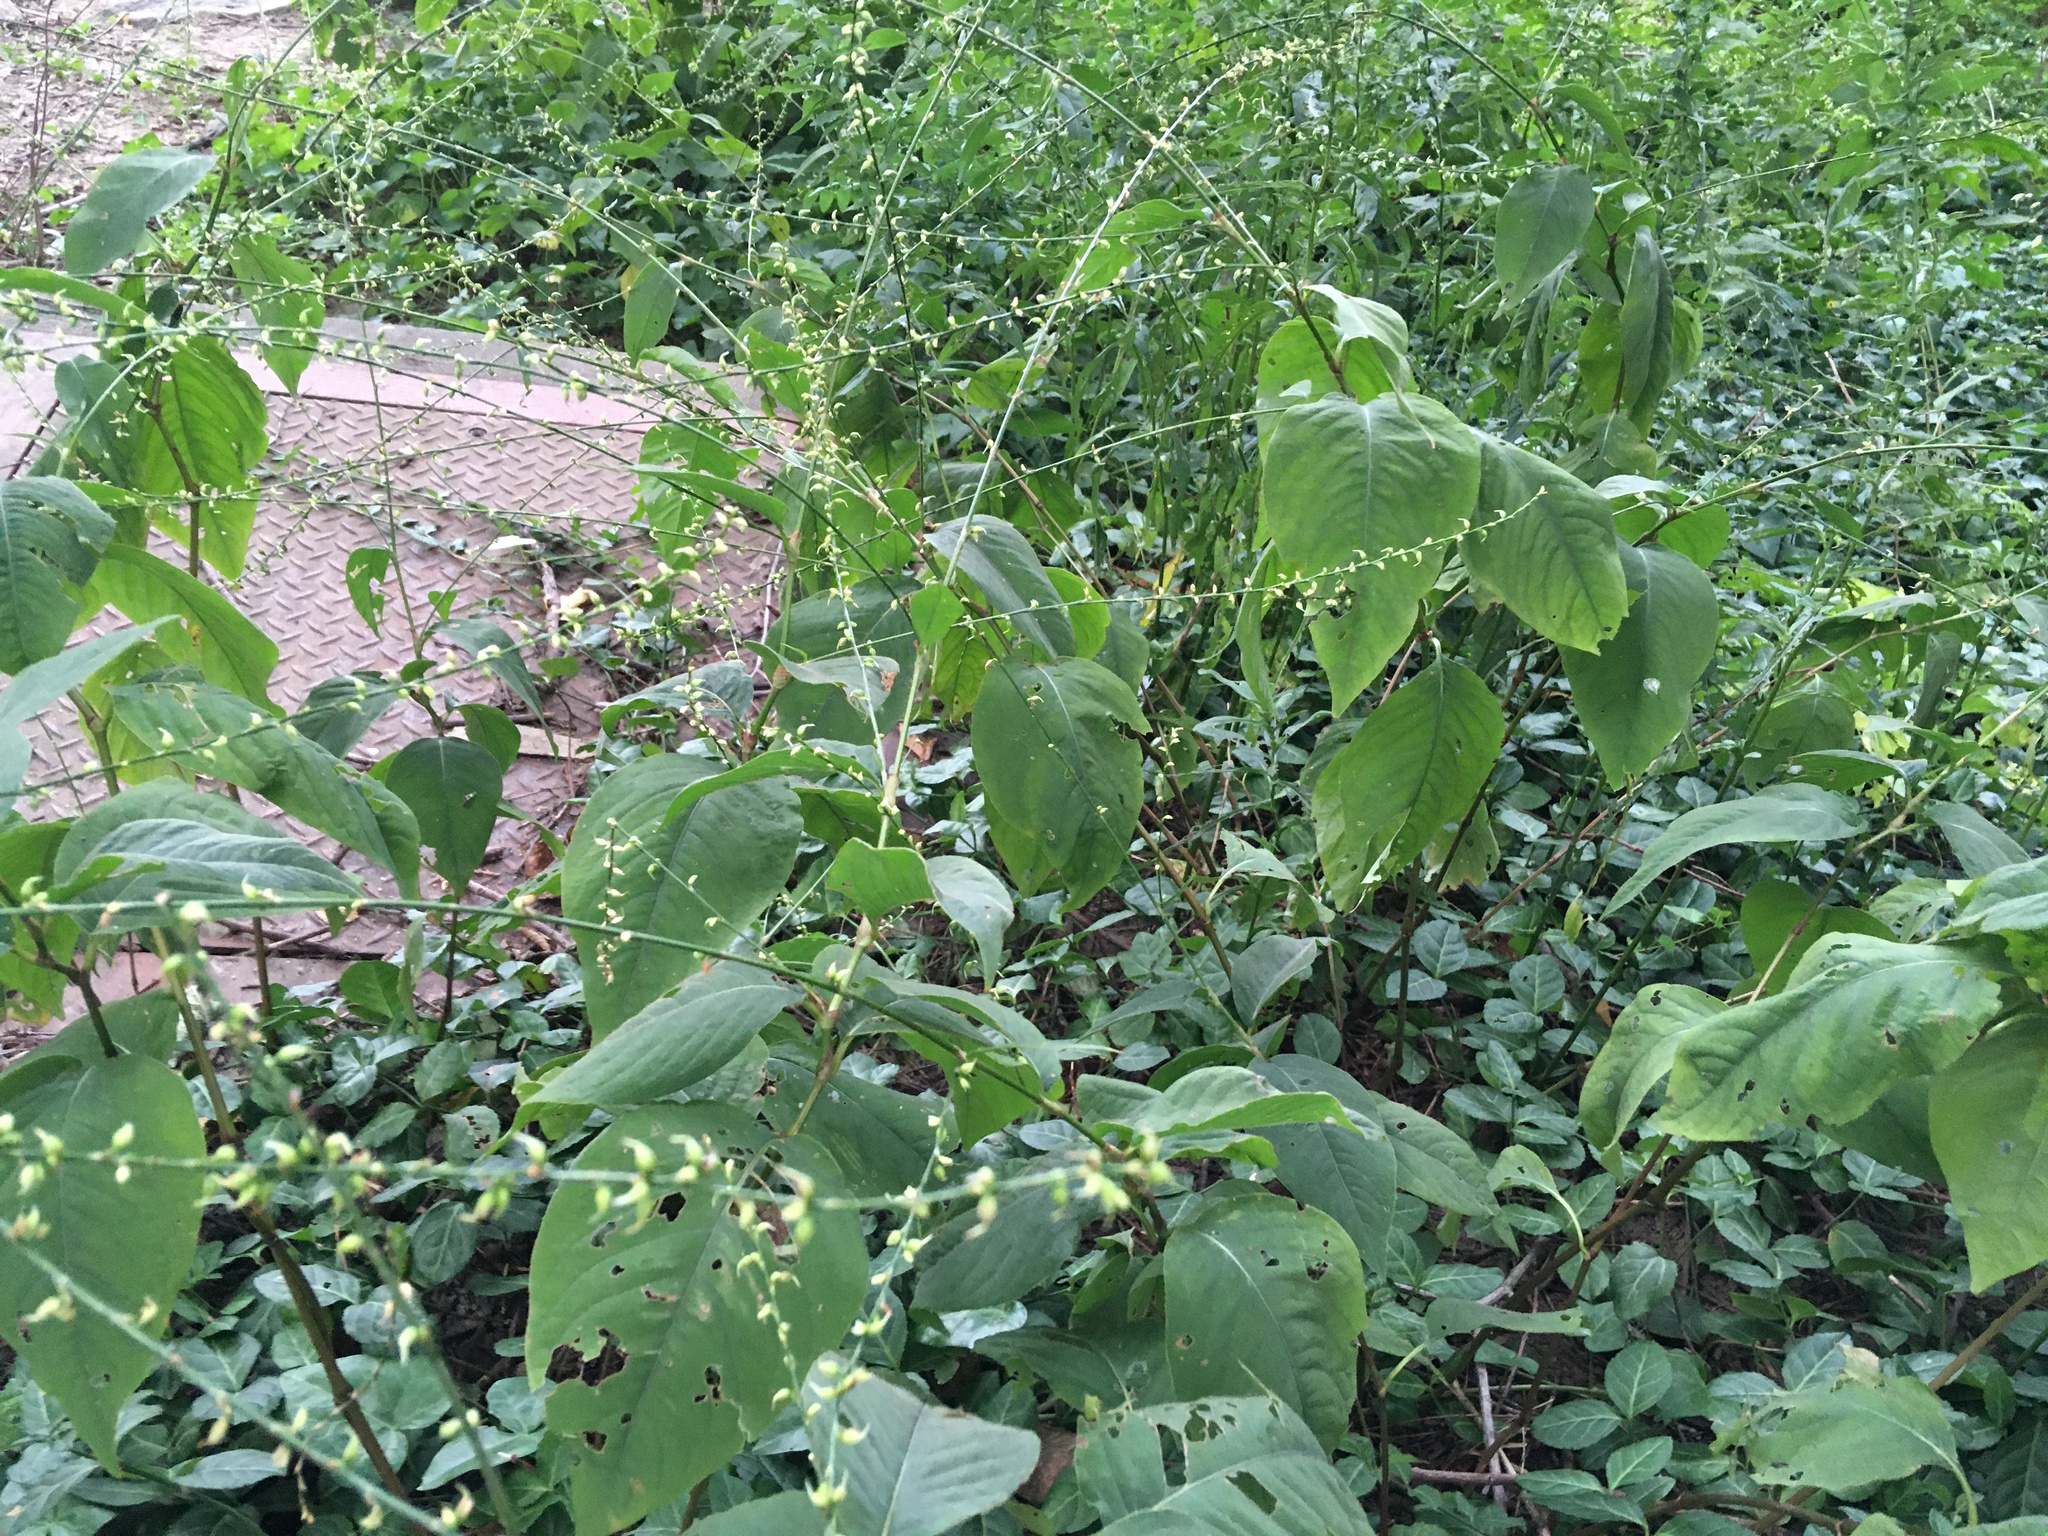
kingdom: Plantae
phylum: Tracheophyta
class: Magnoliopsida
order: Caryophyllales
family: Polygonaceae
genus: Persicaria
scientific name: Persicaria virginiana
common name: Jumpseed
